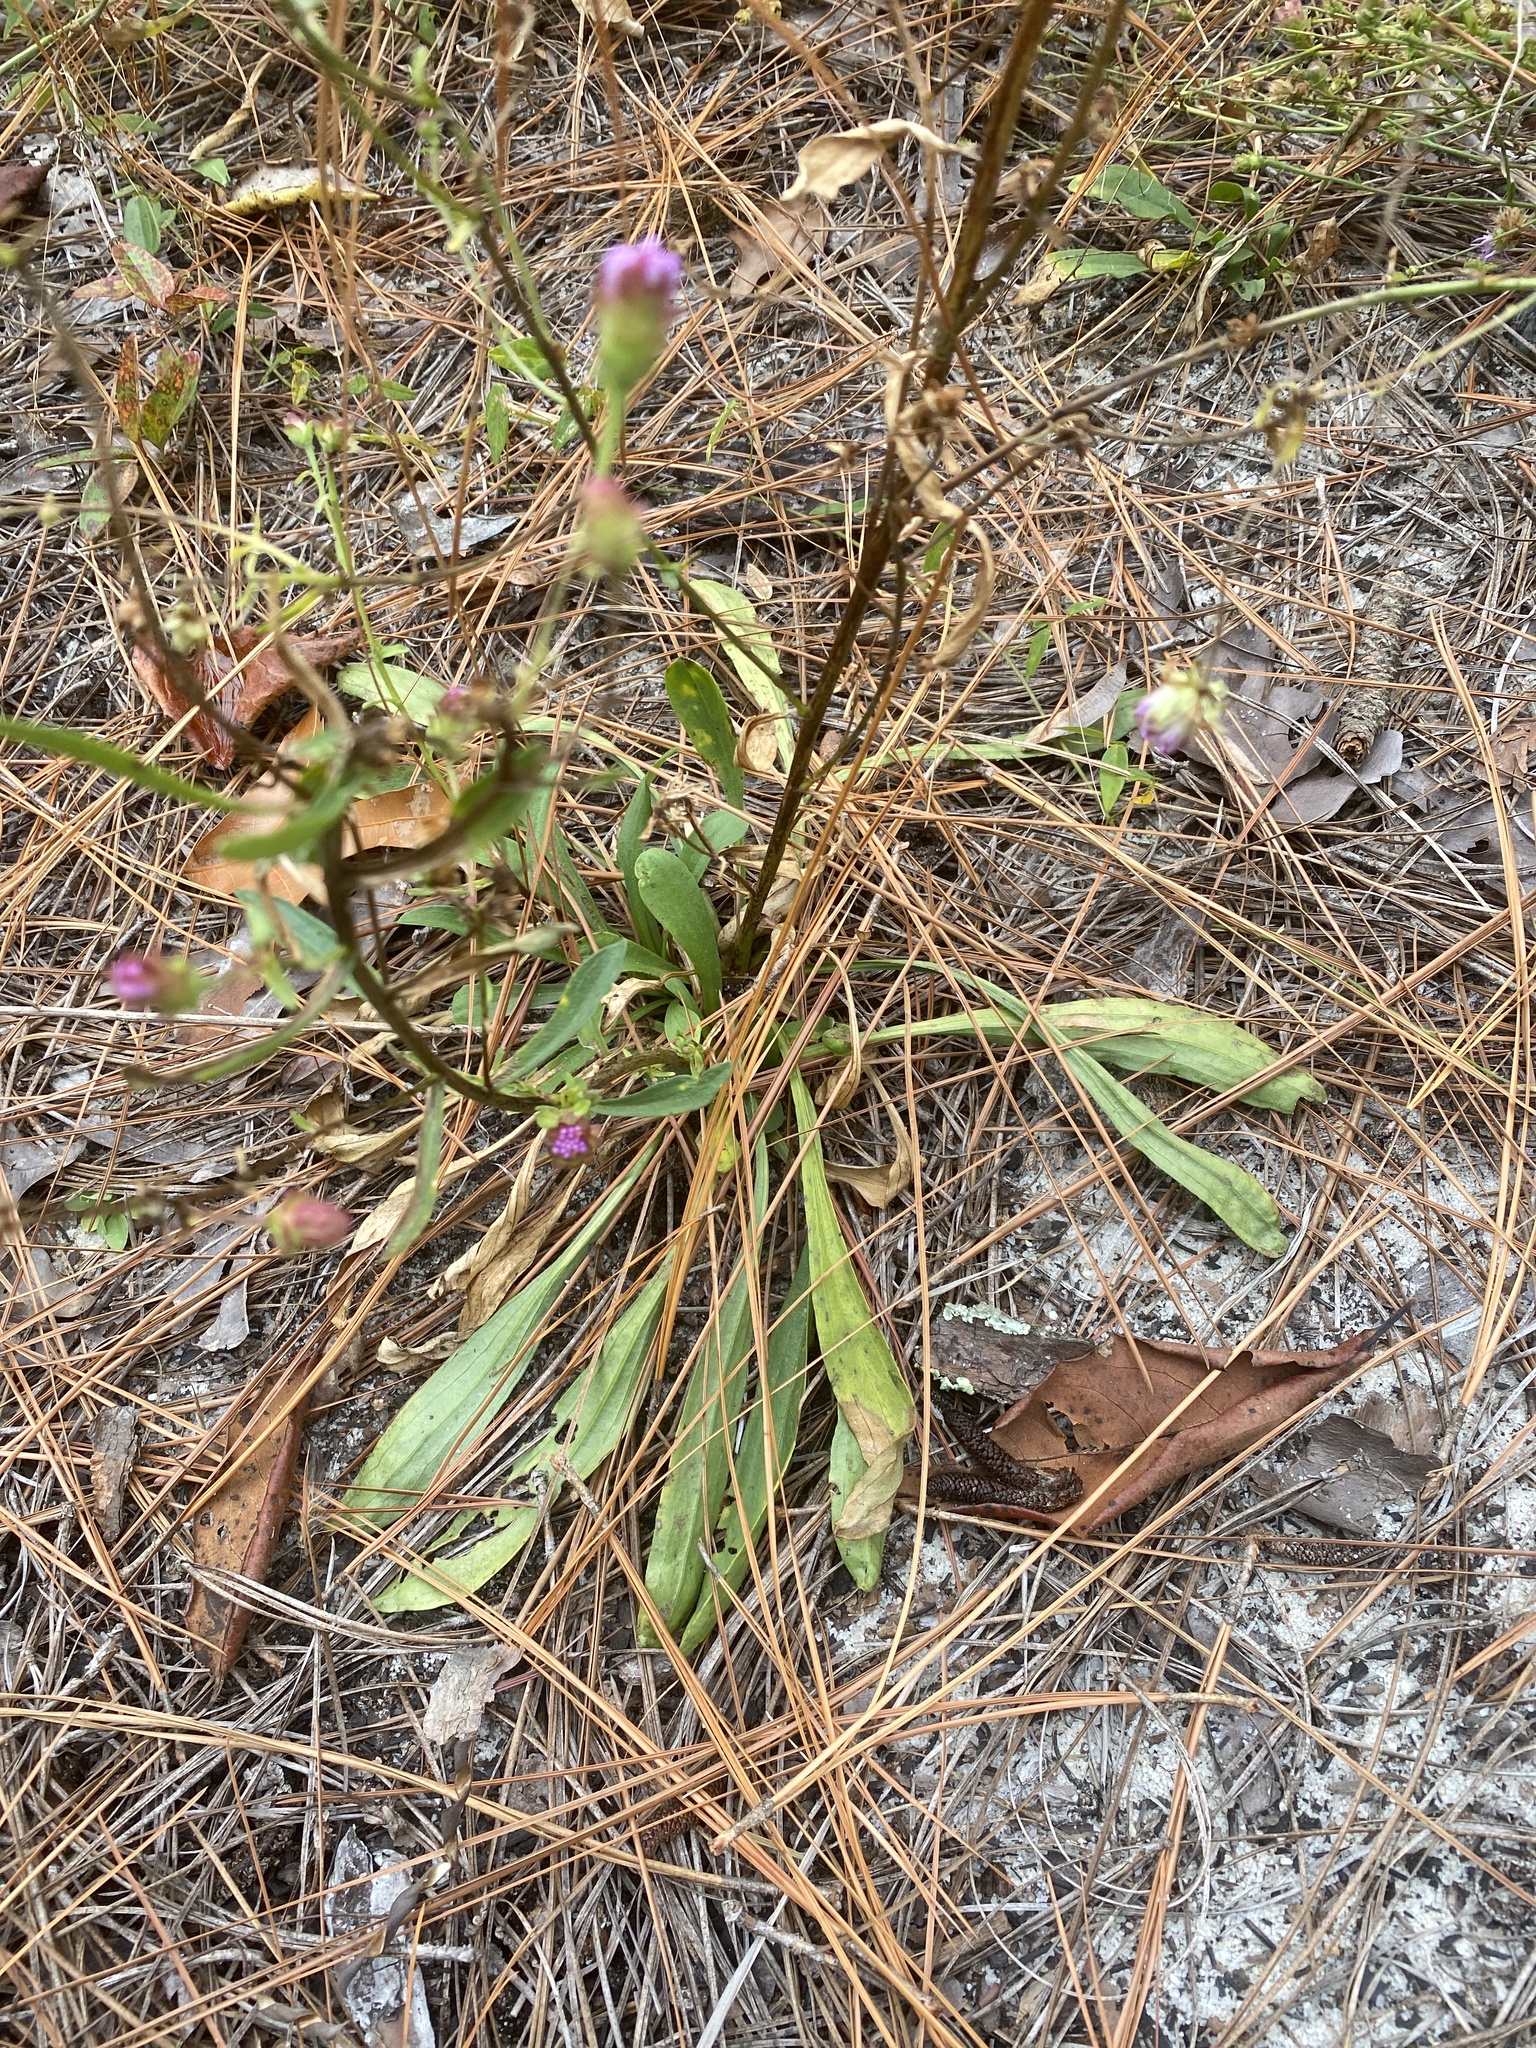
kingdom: Plantae
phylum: Tracheophyta
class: Magnoliopsida
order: Asterales
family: Asteraceae
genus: Carphephorus
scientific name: Carphephorus bellidifolius
